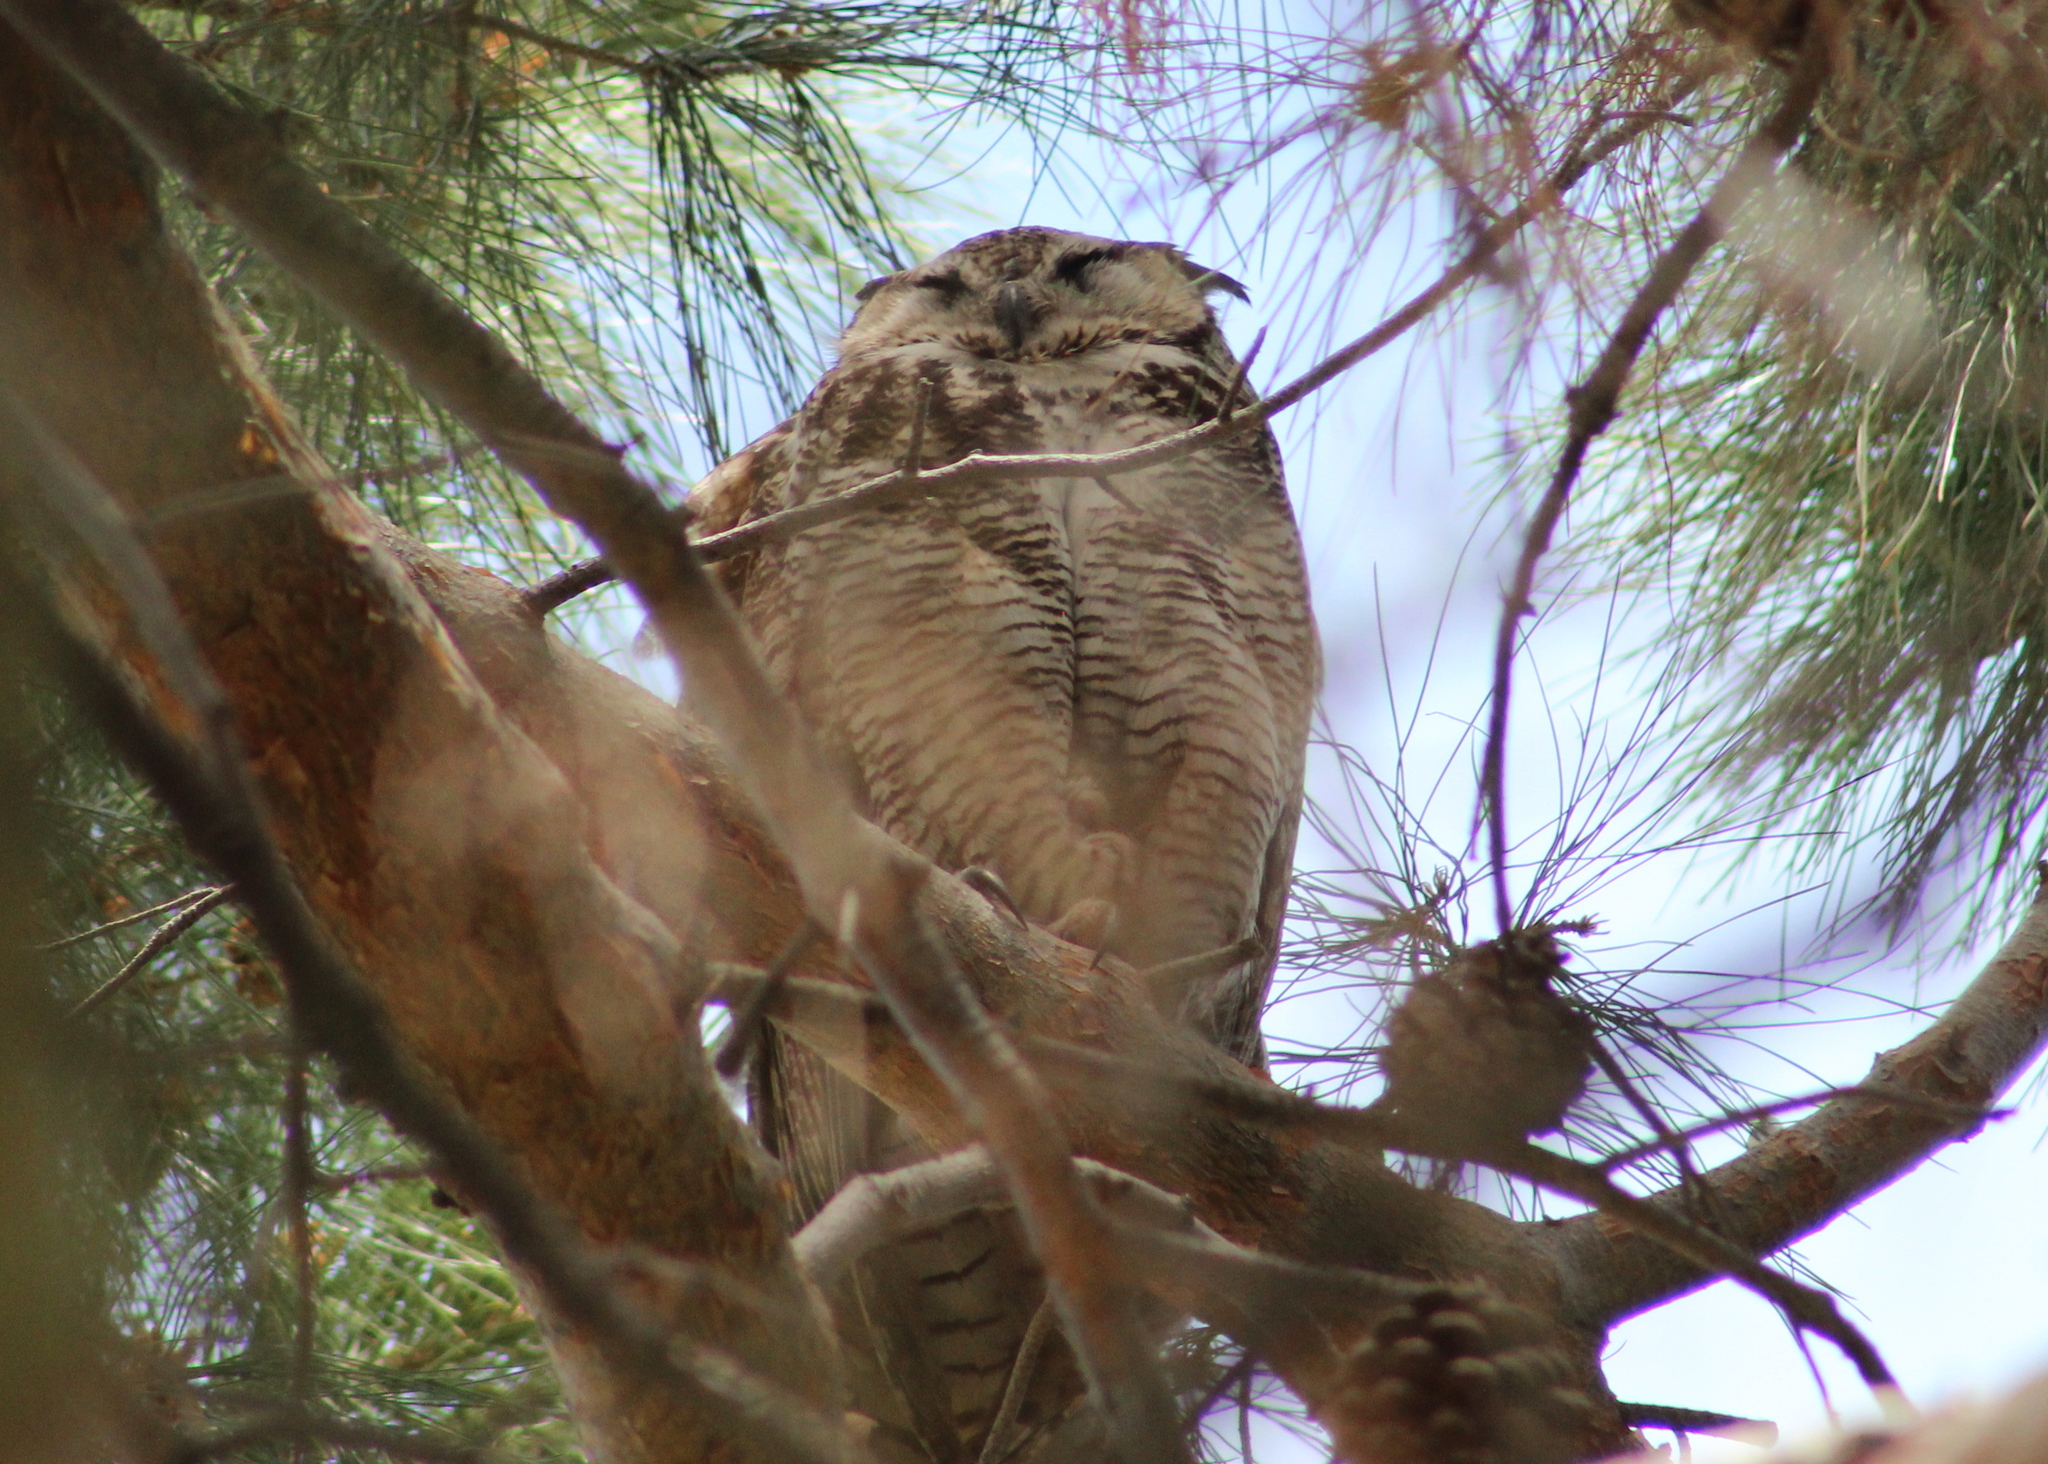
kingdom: Animalia
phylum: Chordata
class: Aves
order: Strigiformes
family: Strigidae
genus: Bubo
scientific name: Bubo virginianus
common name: Great horned owl
